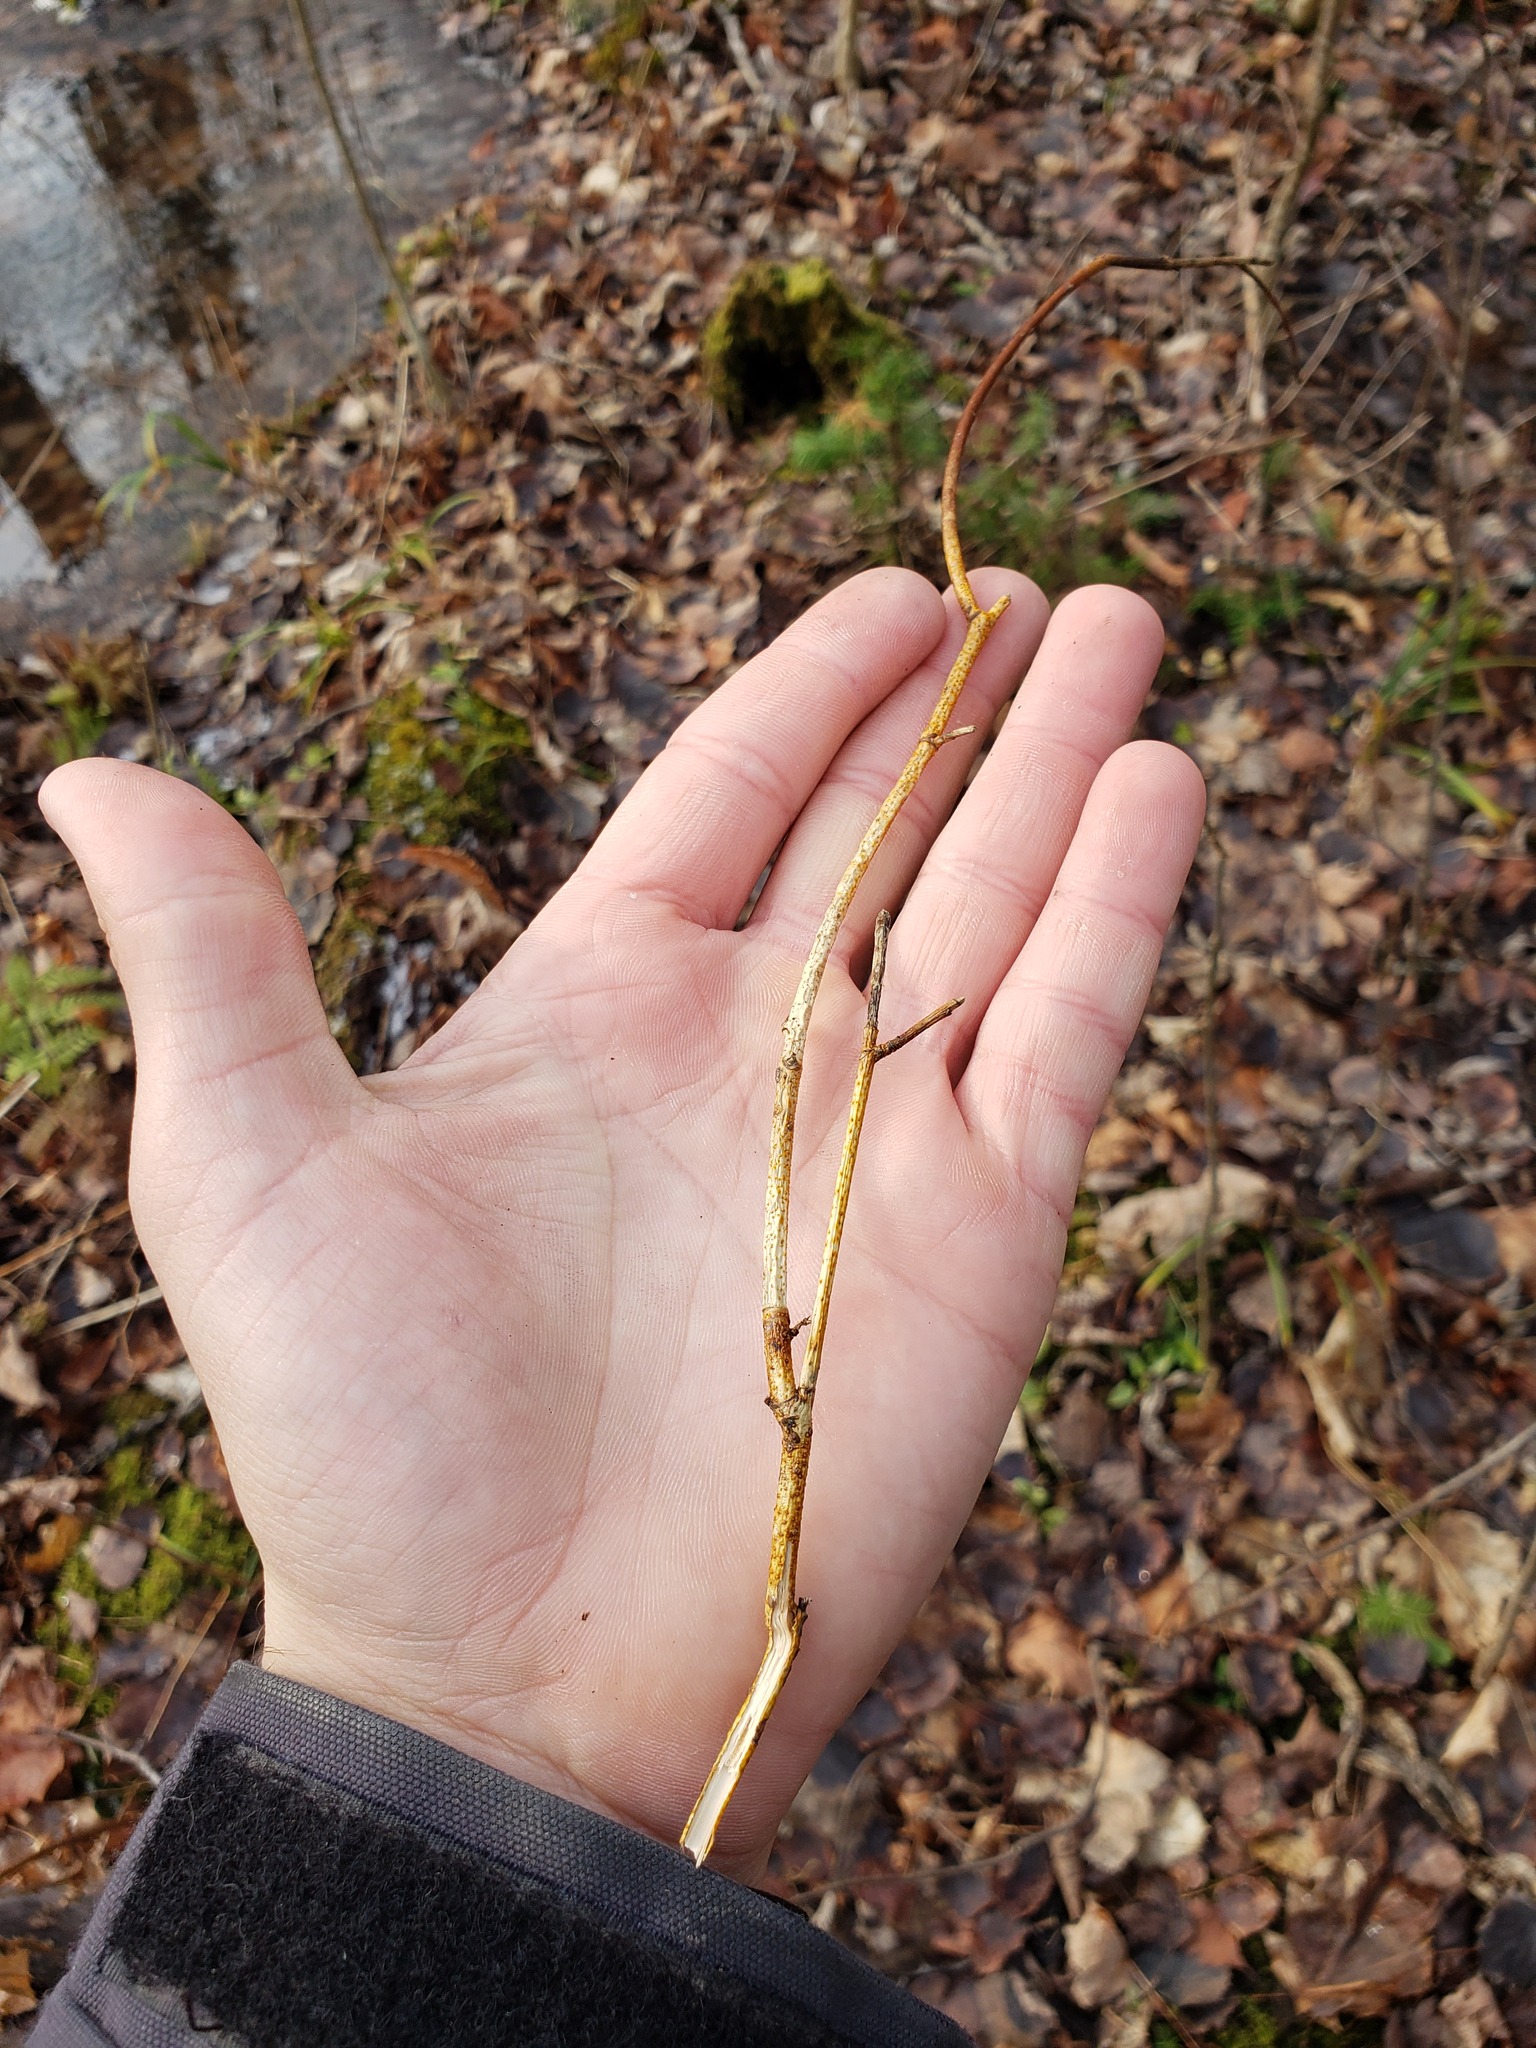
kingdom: Fungi
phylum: Ascomycota
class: Sordariomycetes
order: Diaporthales
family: Cryphonectriaceae
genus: Aurantioporthe
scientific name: Aurantioporthe corni
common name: Dogwood golden canker
